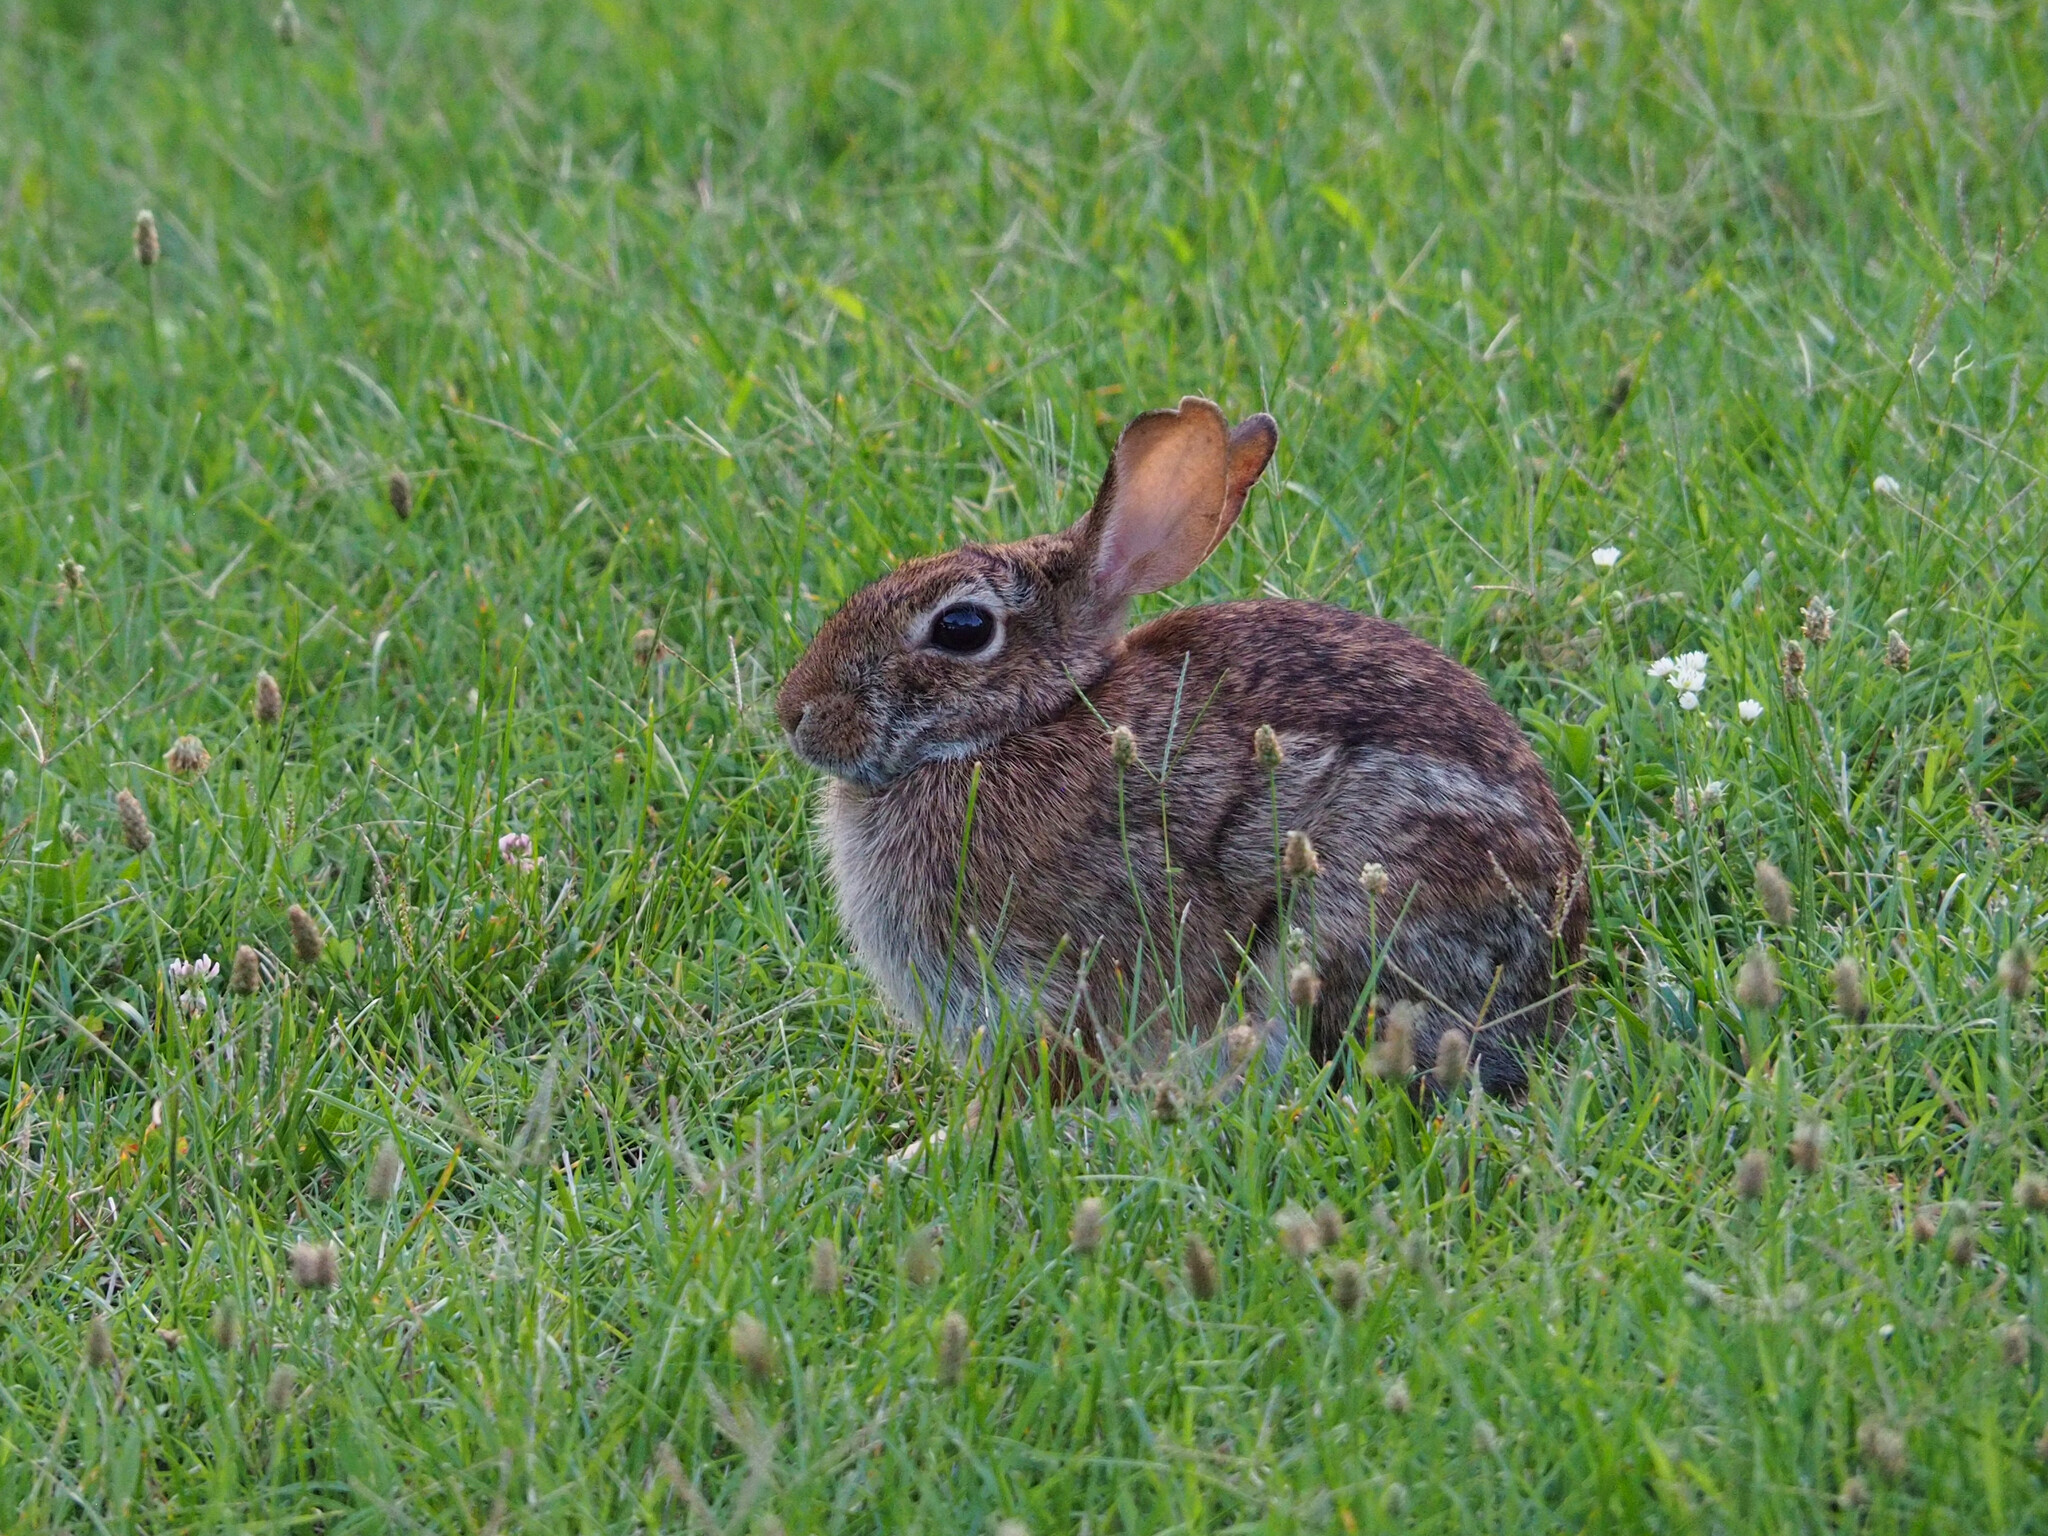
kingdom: Animalia
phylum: Chordata
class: Mammalia
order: Lagomorpha
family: Leporidae
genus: Sylvilagus
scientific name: Sylvilagus floridanus
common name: Eastern cottontail
